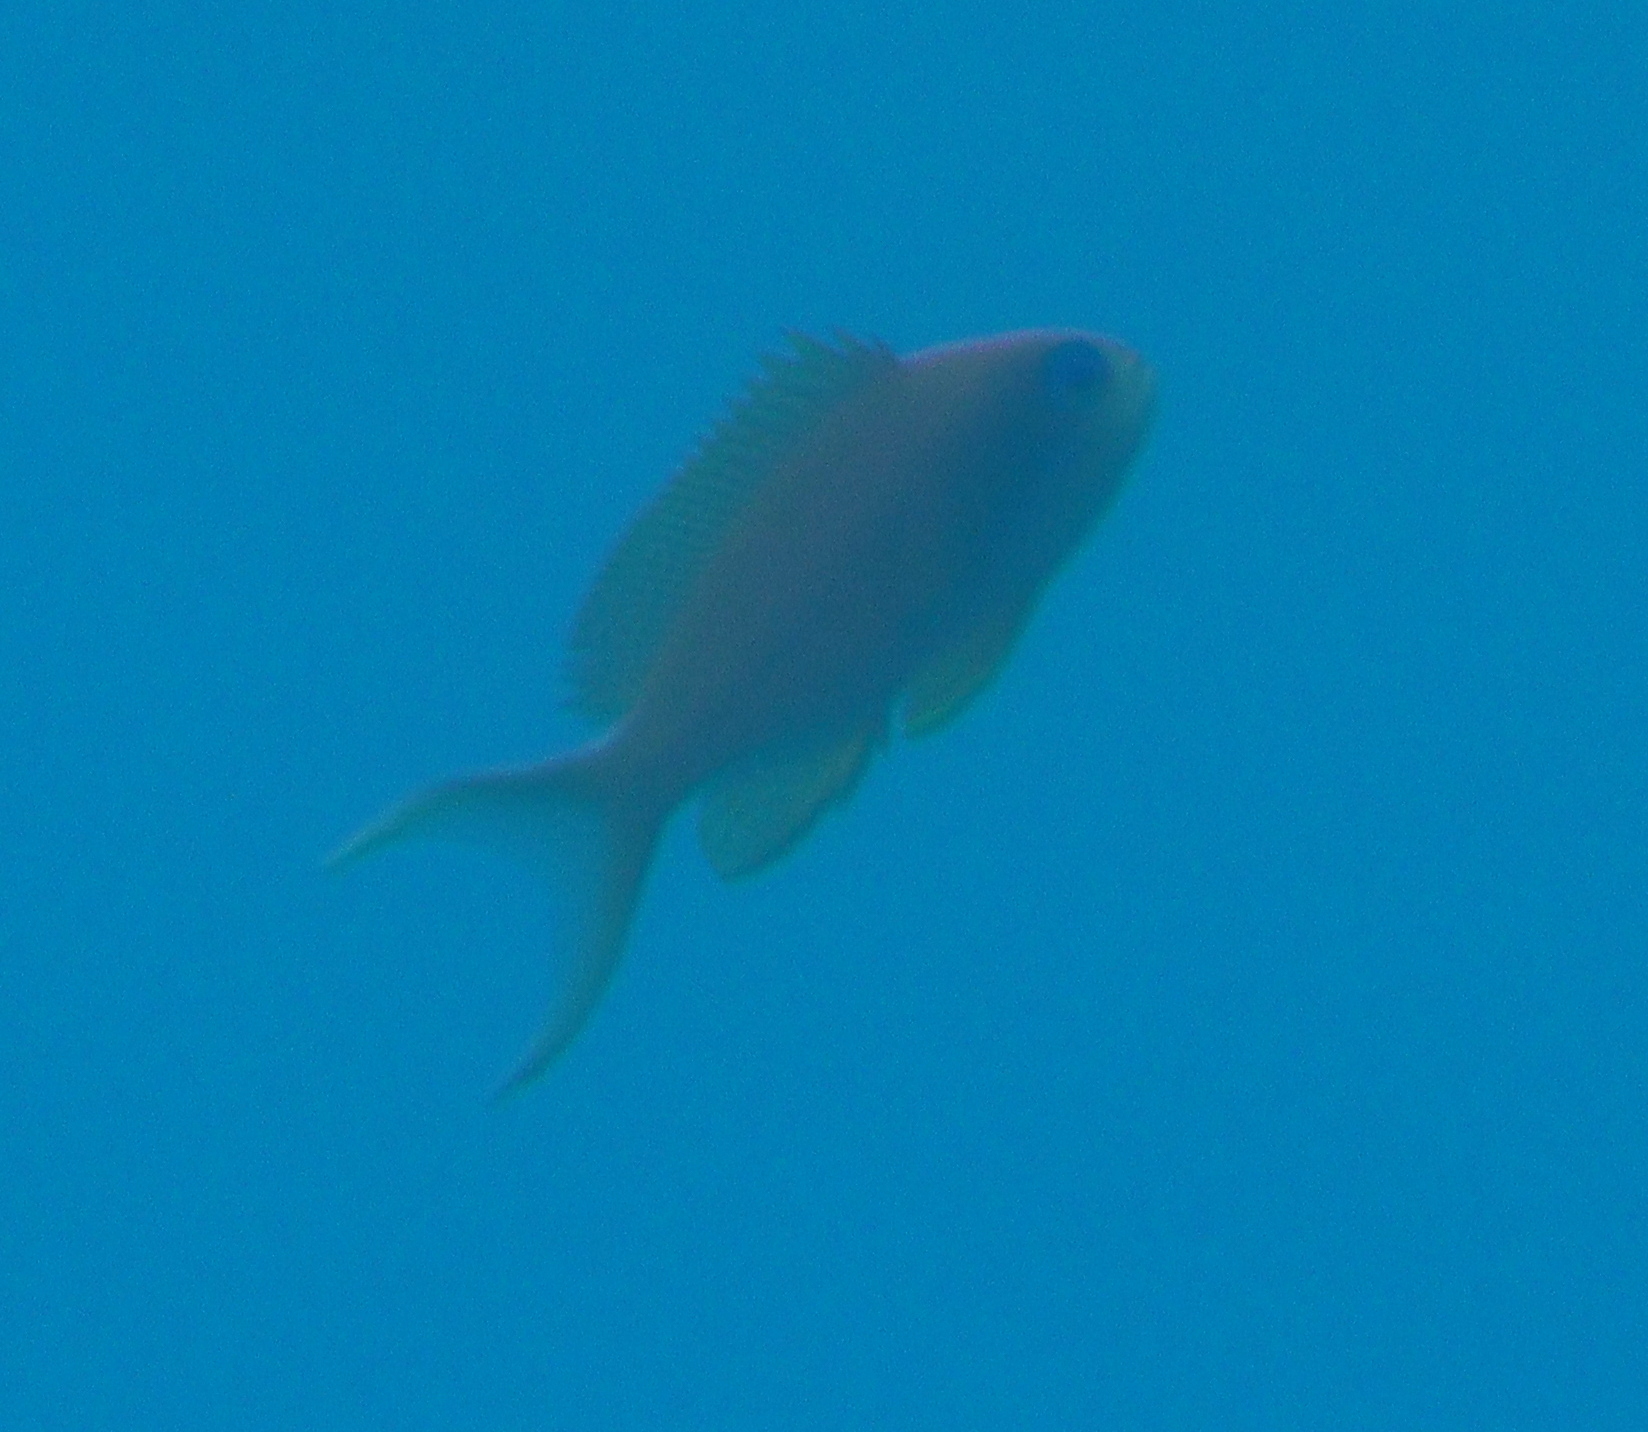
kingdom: Animalia
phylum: Chordata
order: Perciformes
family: Serranidae
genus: Pseudanthias
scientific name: Pseudanthias squamipinnis
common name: Scalefin anthias
